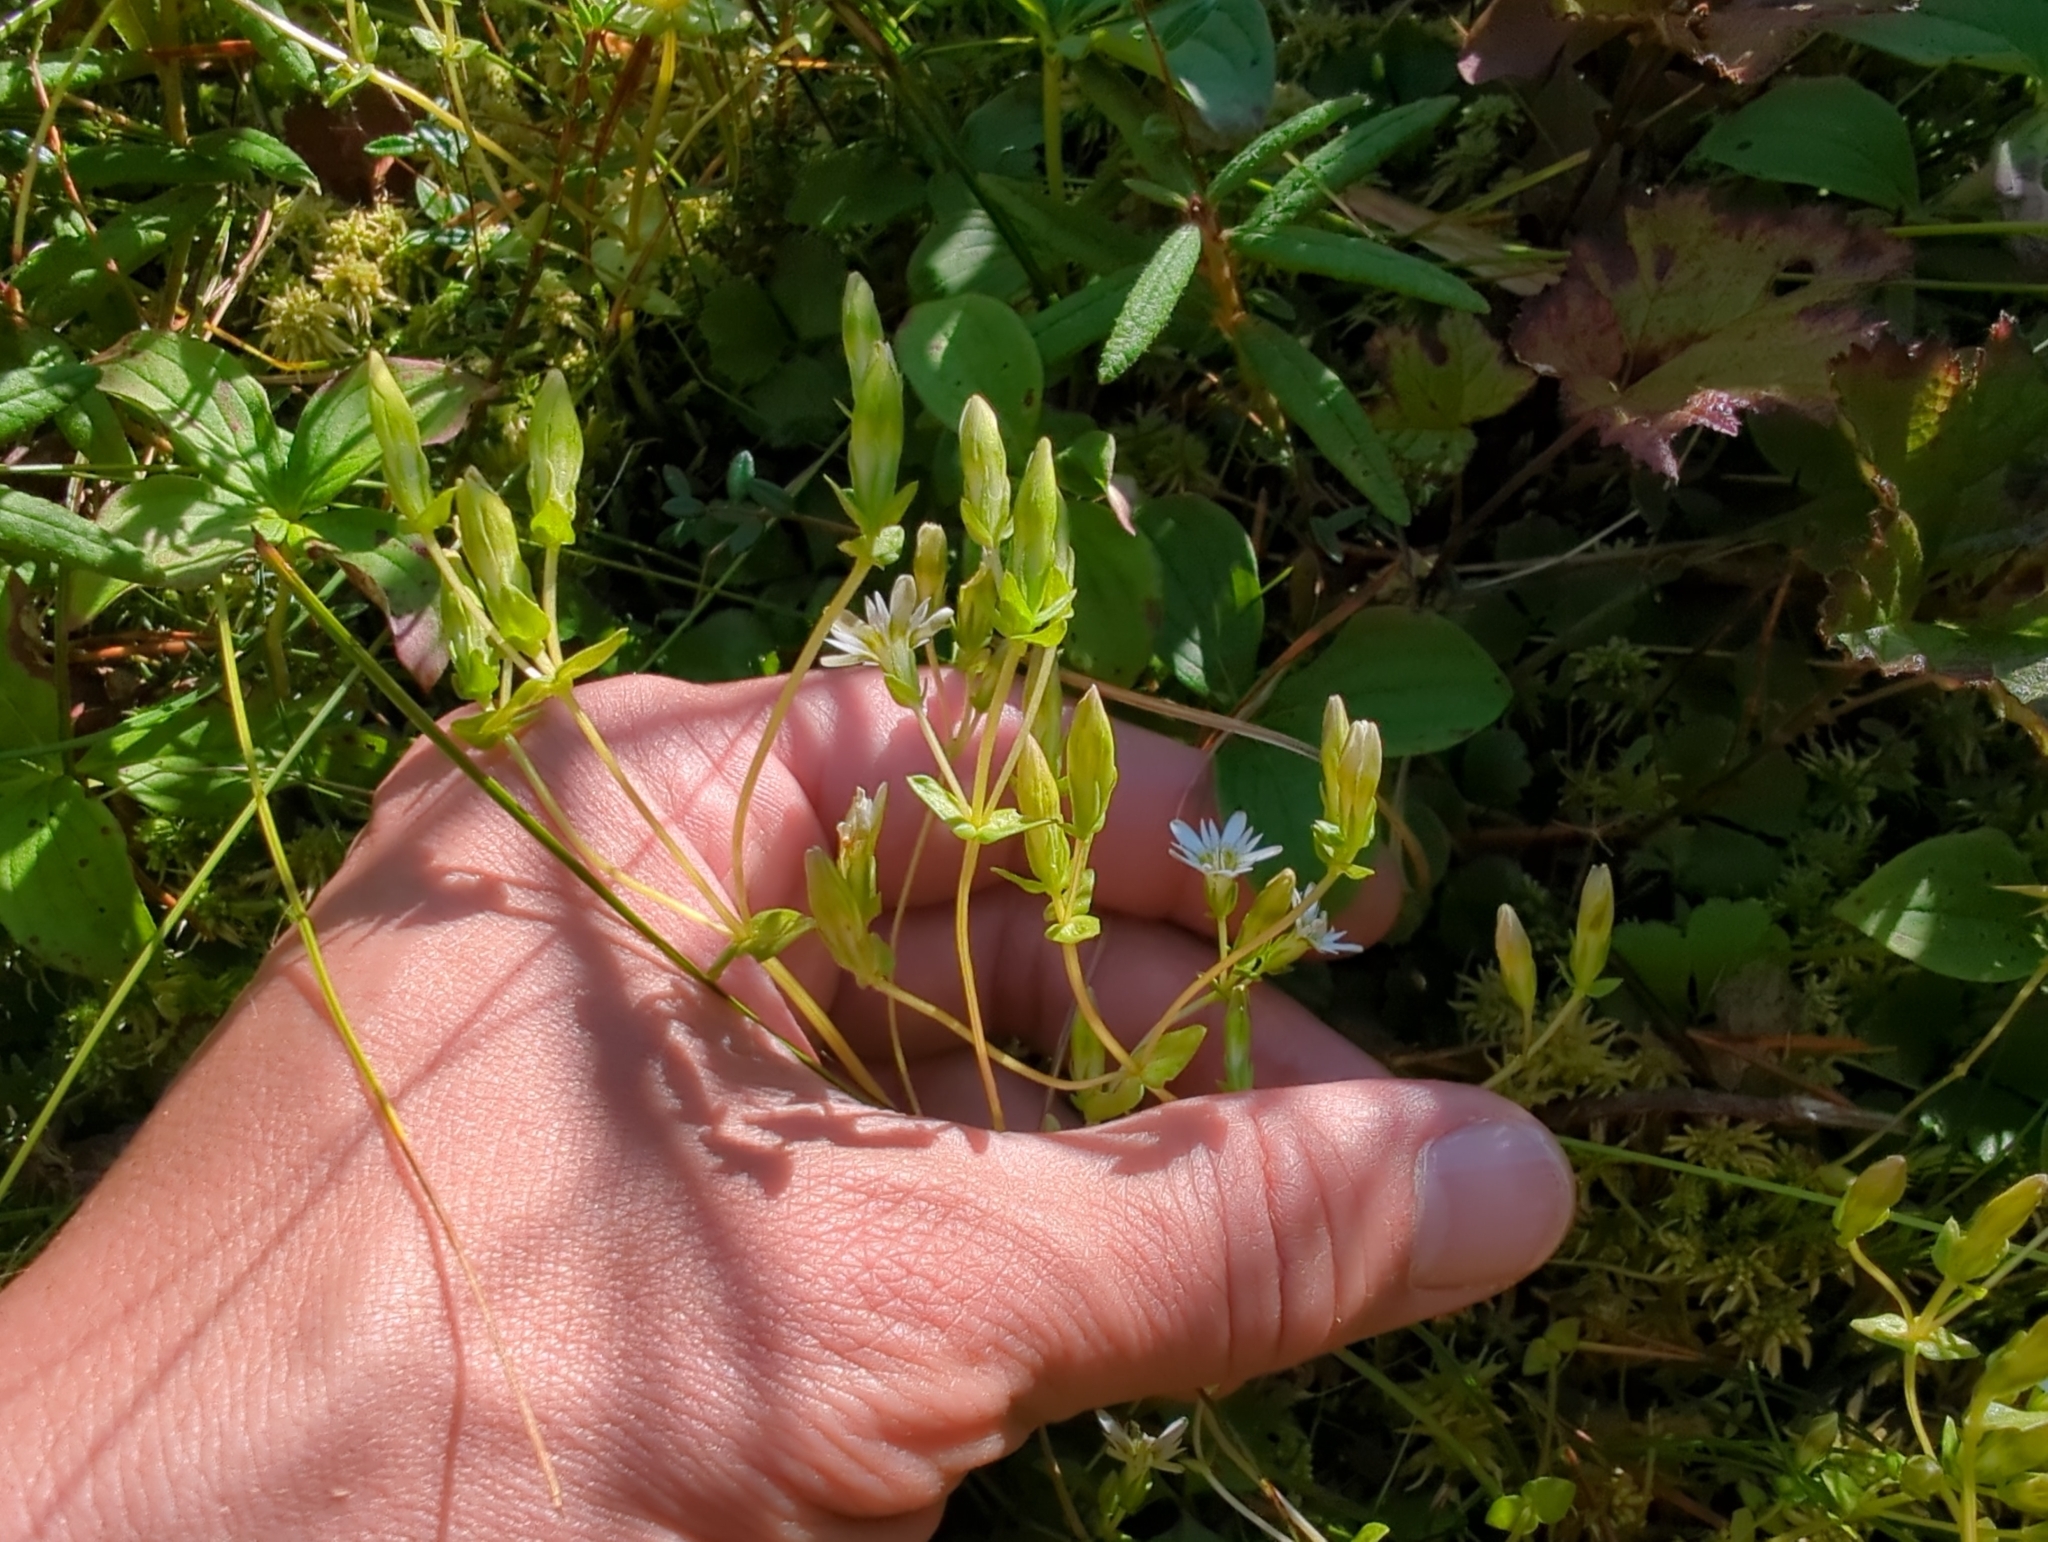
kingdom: Plantae
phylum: Tracheophyta
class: Magnoliopsida
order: Gentianales
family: Gentianaceae
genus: Gentiana
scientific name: Gentiana douglasiana
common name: Swamp gentian
